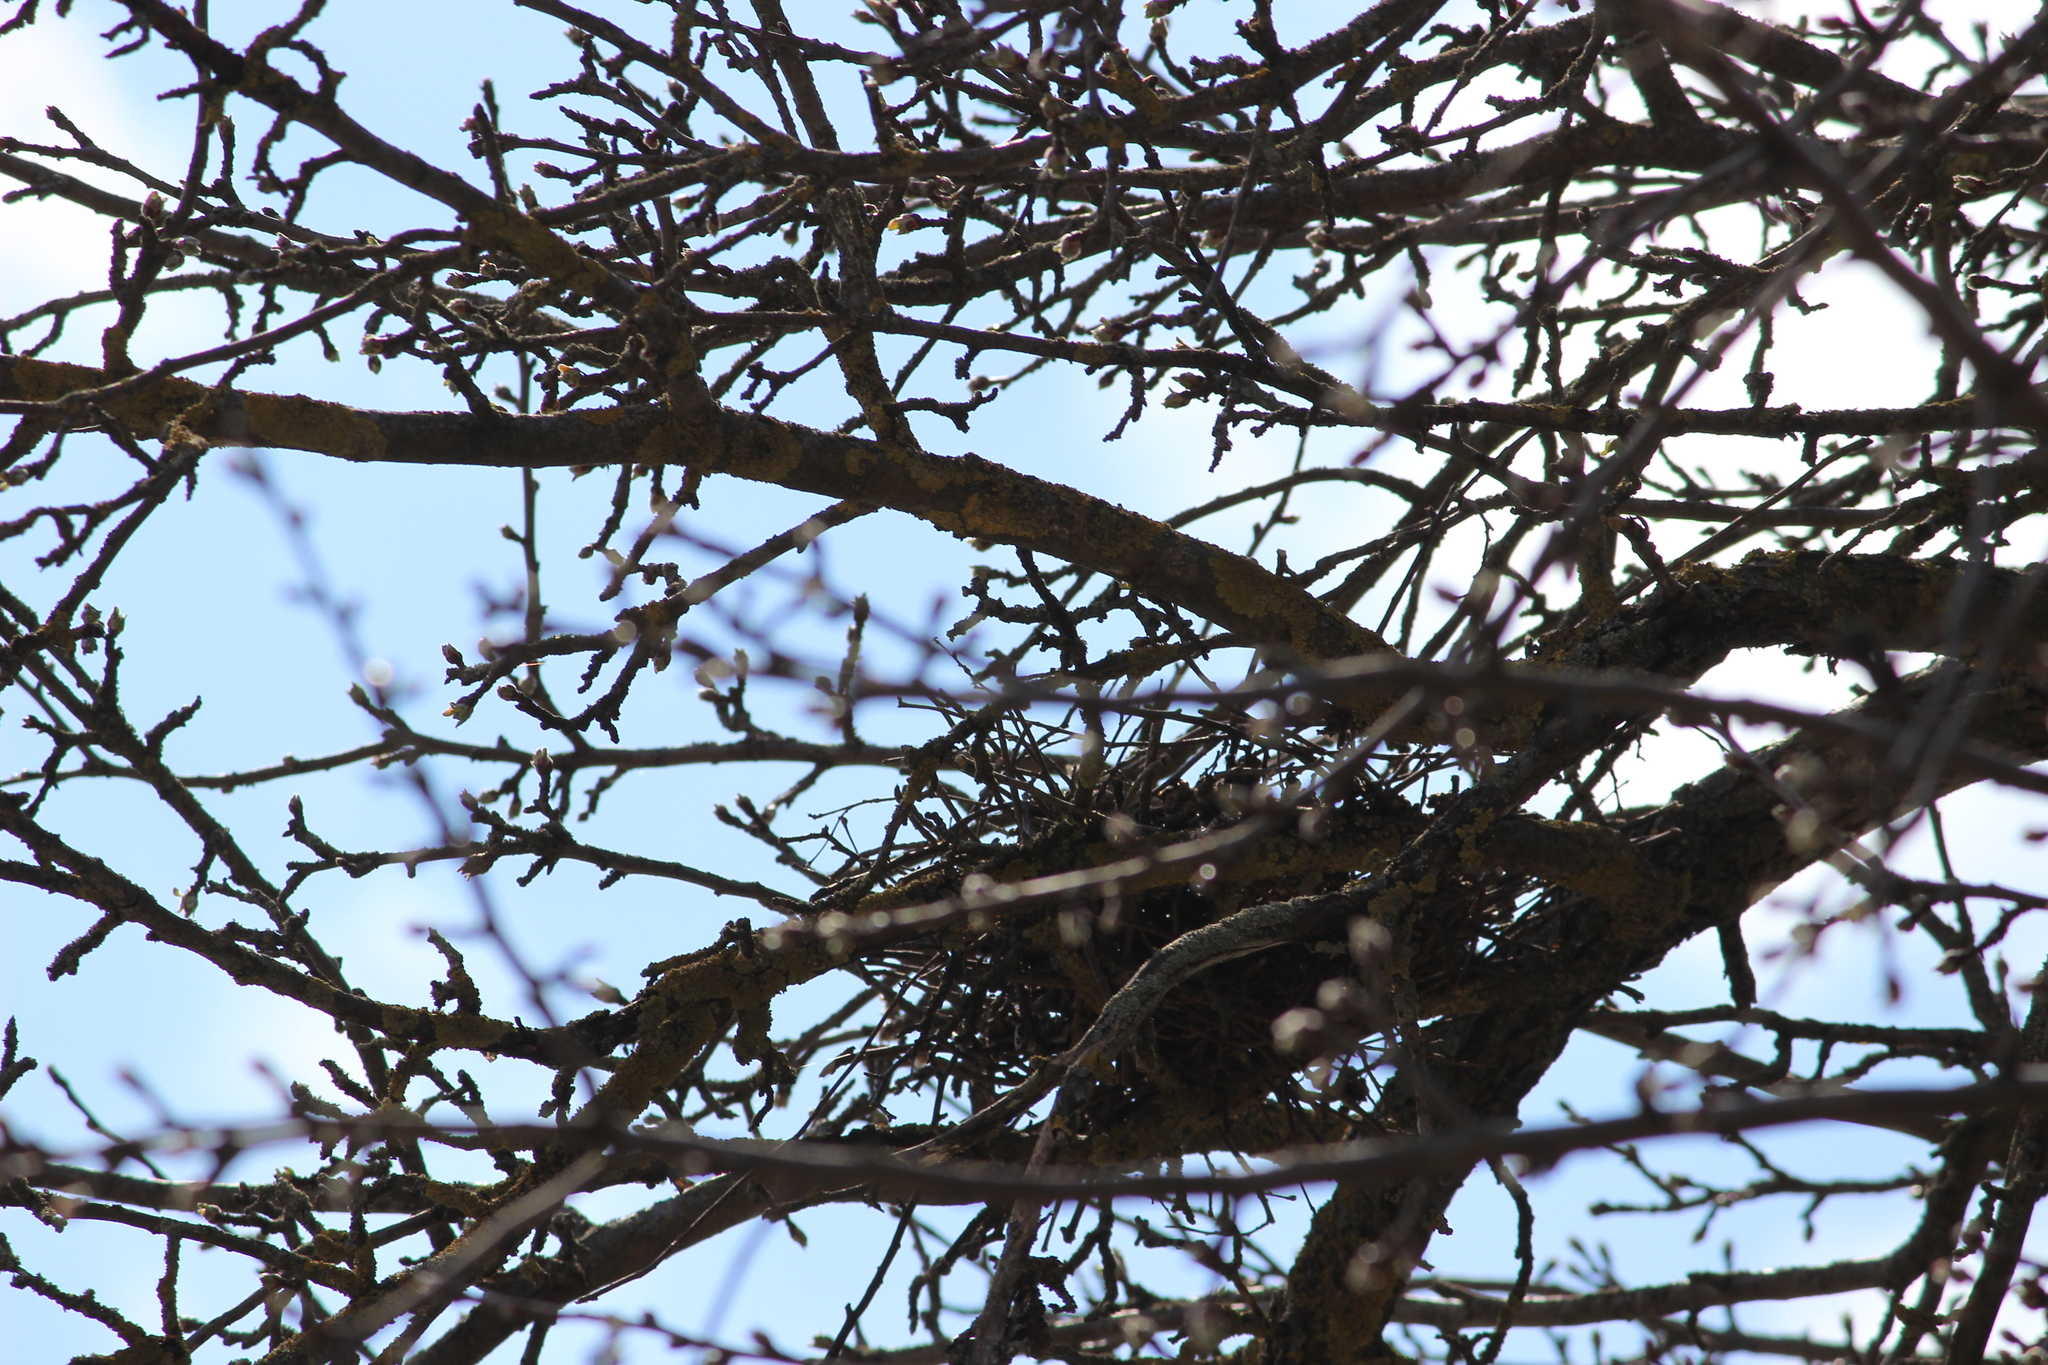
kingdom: Animalia
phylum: Chordata
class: Aves
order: Columbiformes
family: Columbidae
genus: Columba
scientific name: Columba palumbus
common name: Common wood pigeon
